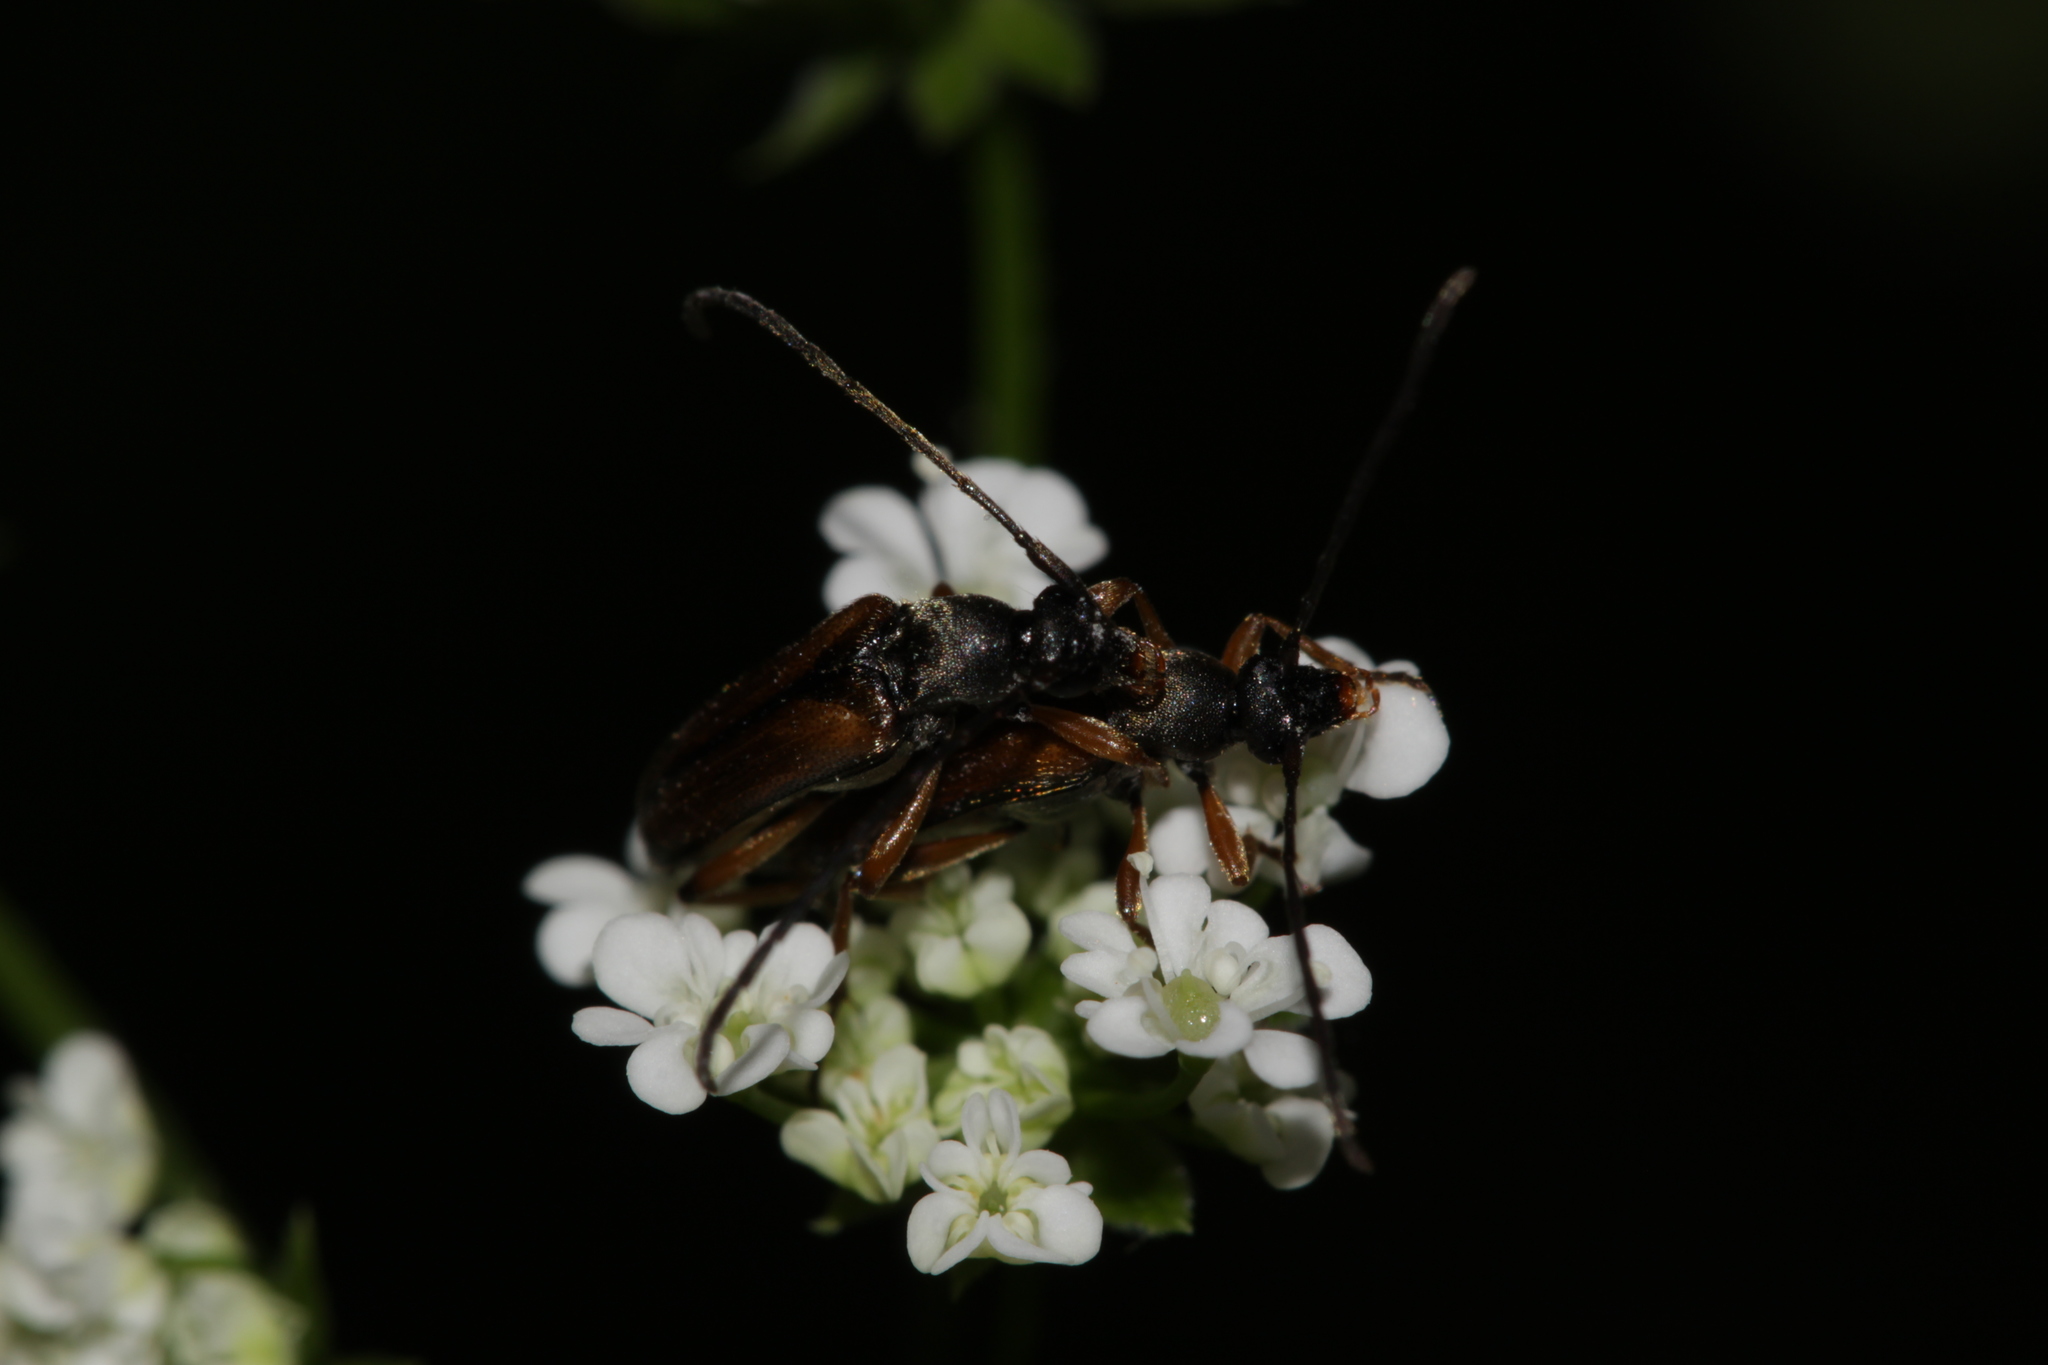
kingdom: Animalia
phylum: Arthropoda
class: Insecta
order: Coleoptera
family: Cerambycidae
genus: Alosterna
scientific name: Alosterna tabacicolor
